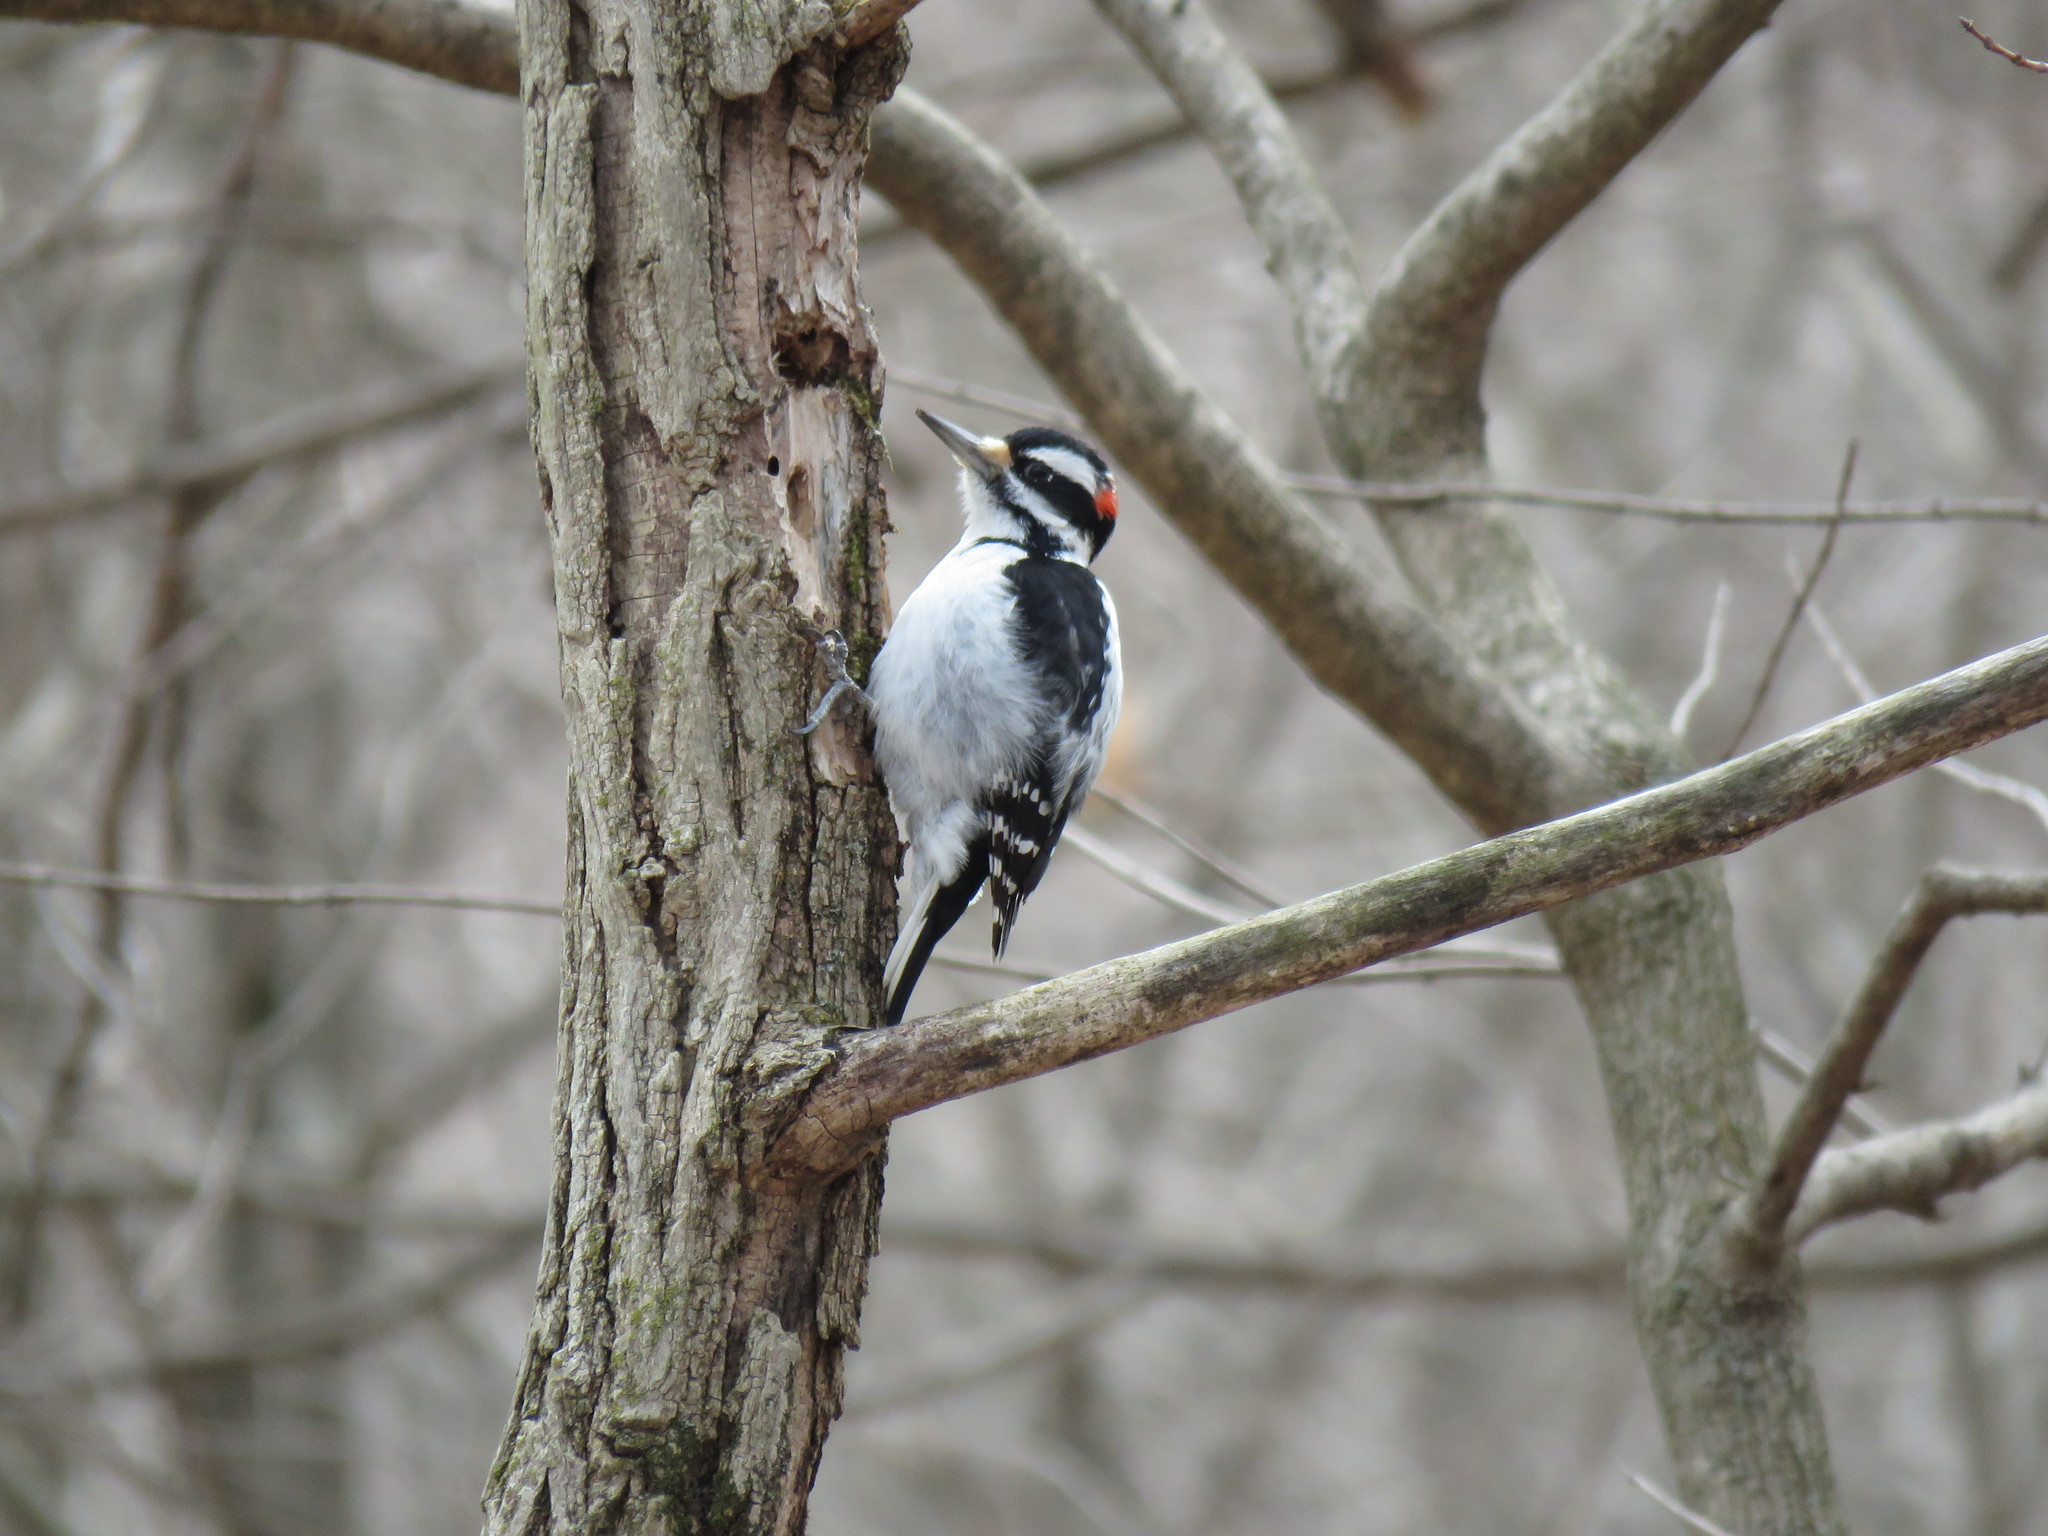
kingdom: Animalia
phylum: Chordata
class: Aves
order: Piciformes
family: Picidae
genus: Leuconotopicus
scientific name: Leuconotopicus villosus
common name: Hairy woodpecker
